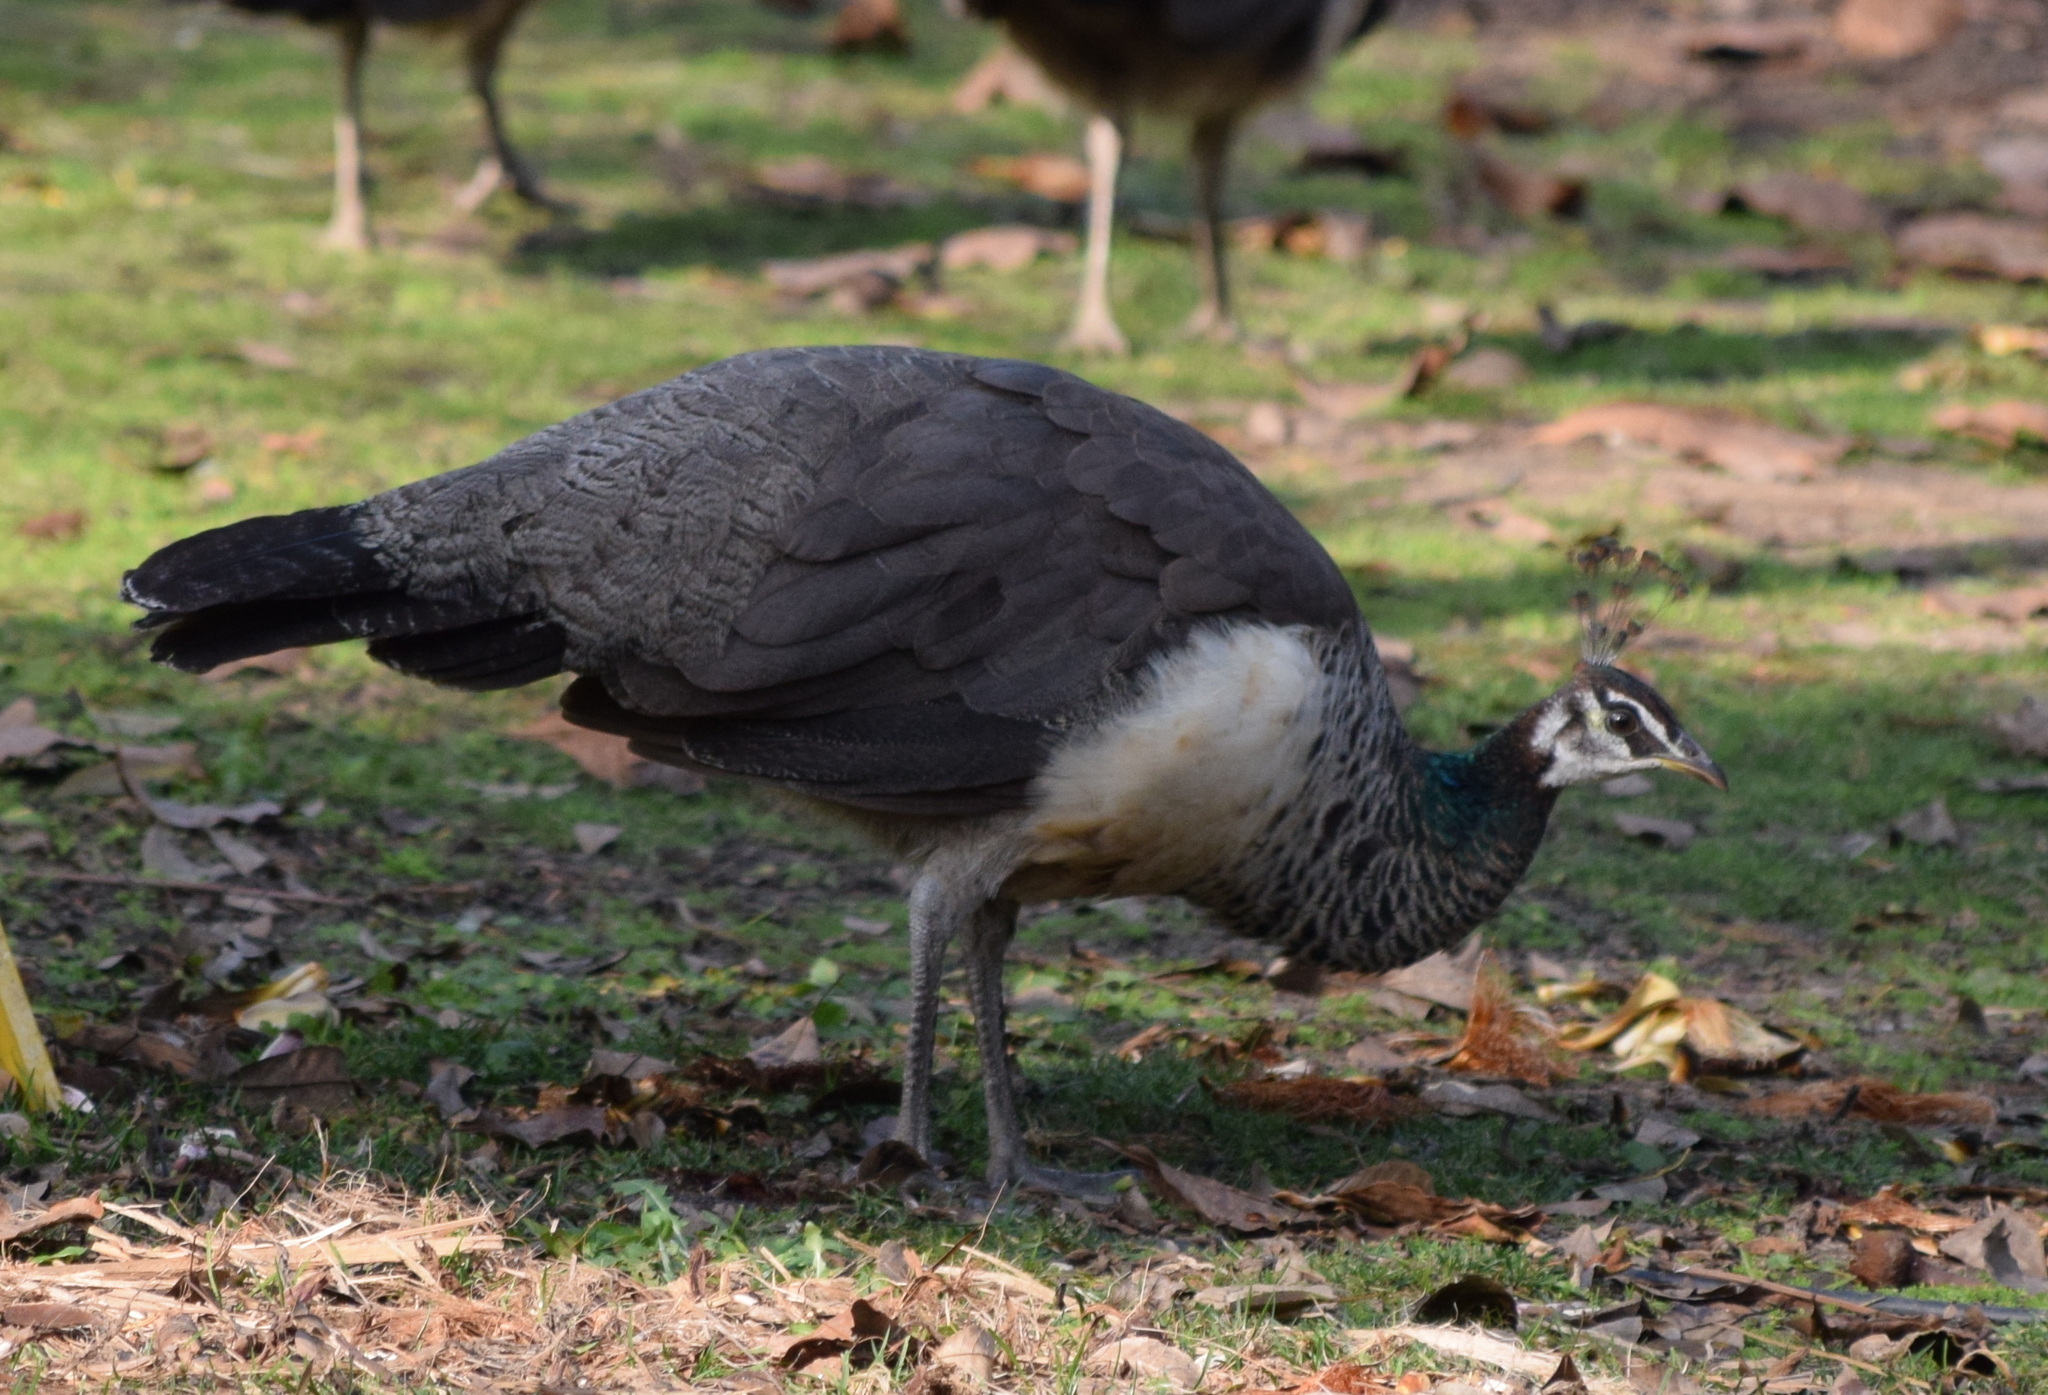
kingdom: Animalia
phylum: Chordata
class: Aves
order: Galliformes
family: Phasianidae
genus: Pavo
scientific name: Pavo cristatus
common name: Indian peafowl
